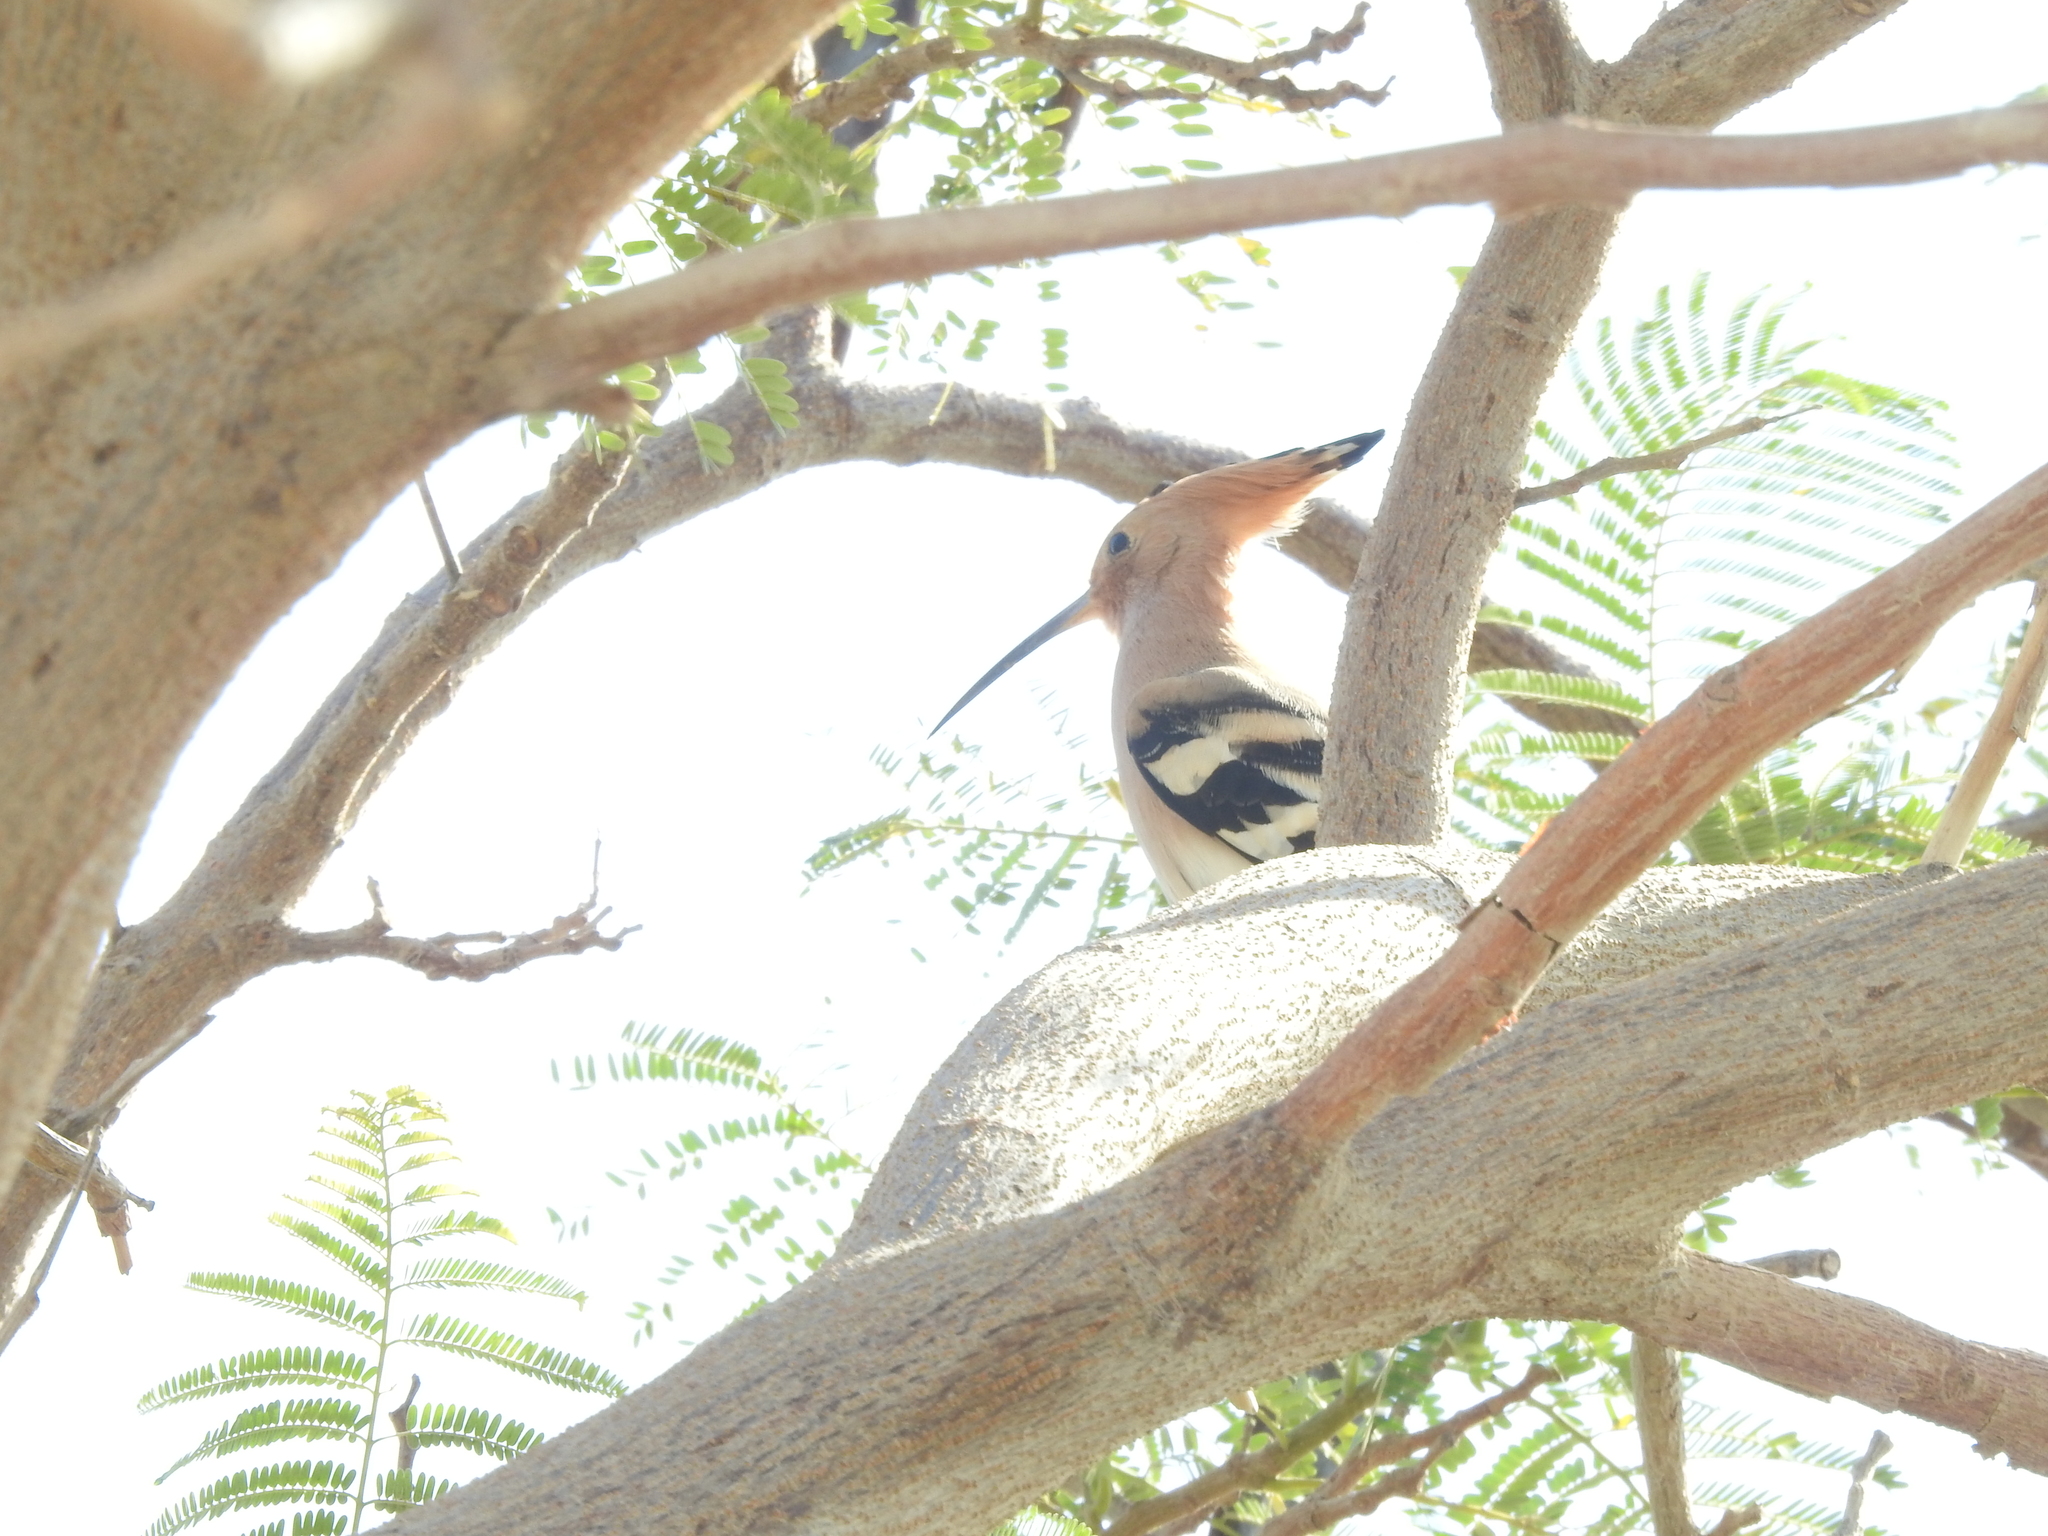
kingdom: Animalia
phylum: Chordata
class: Aves
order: Bucerotiformes
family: Upupidae
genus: Upupa
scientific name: Upupa epops
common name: Eurasian hoopoe
